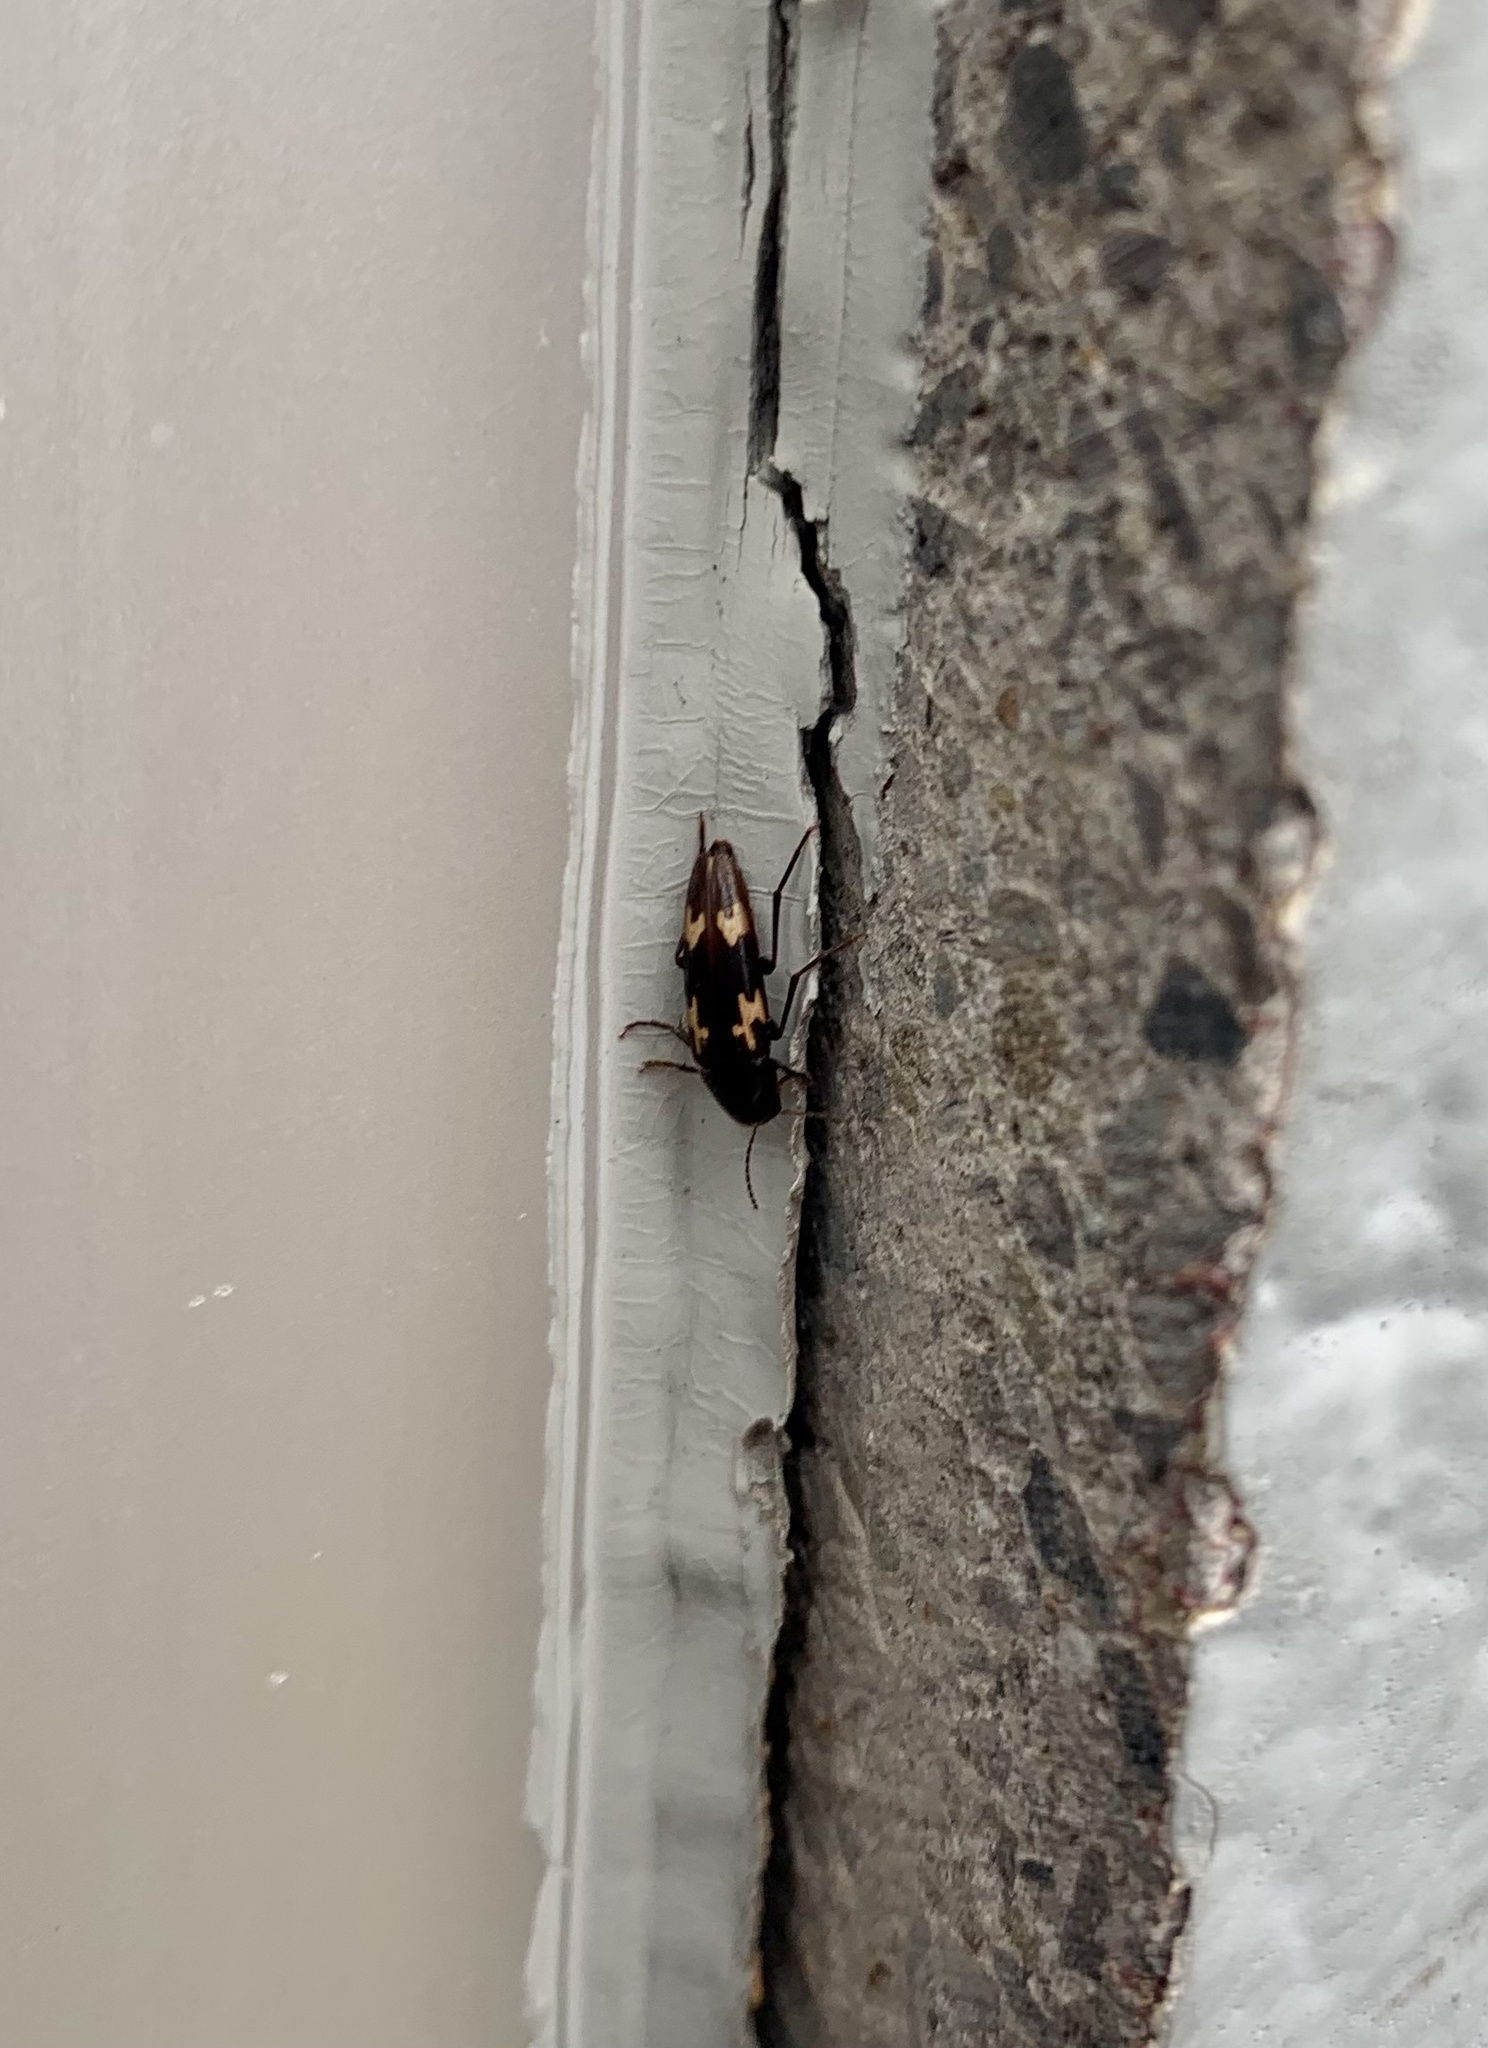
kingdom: Animalia
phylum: Arthropoda
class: Insecta
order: Coleoptera
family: Melandryidae
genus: Dircaea
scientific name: Dircaea liturata
